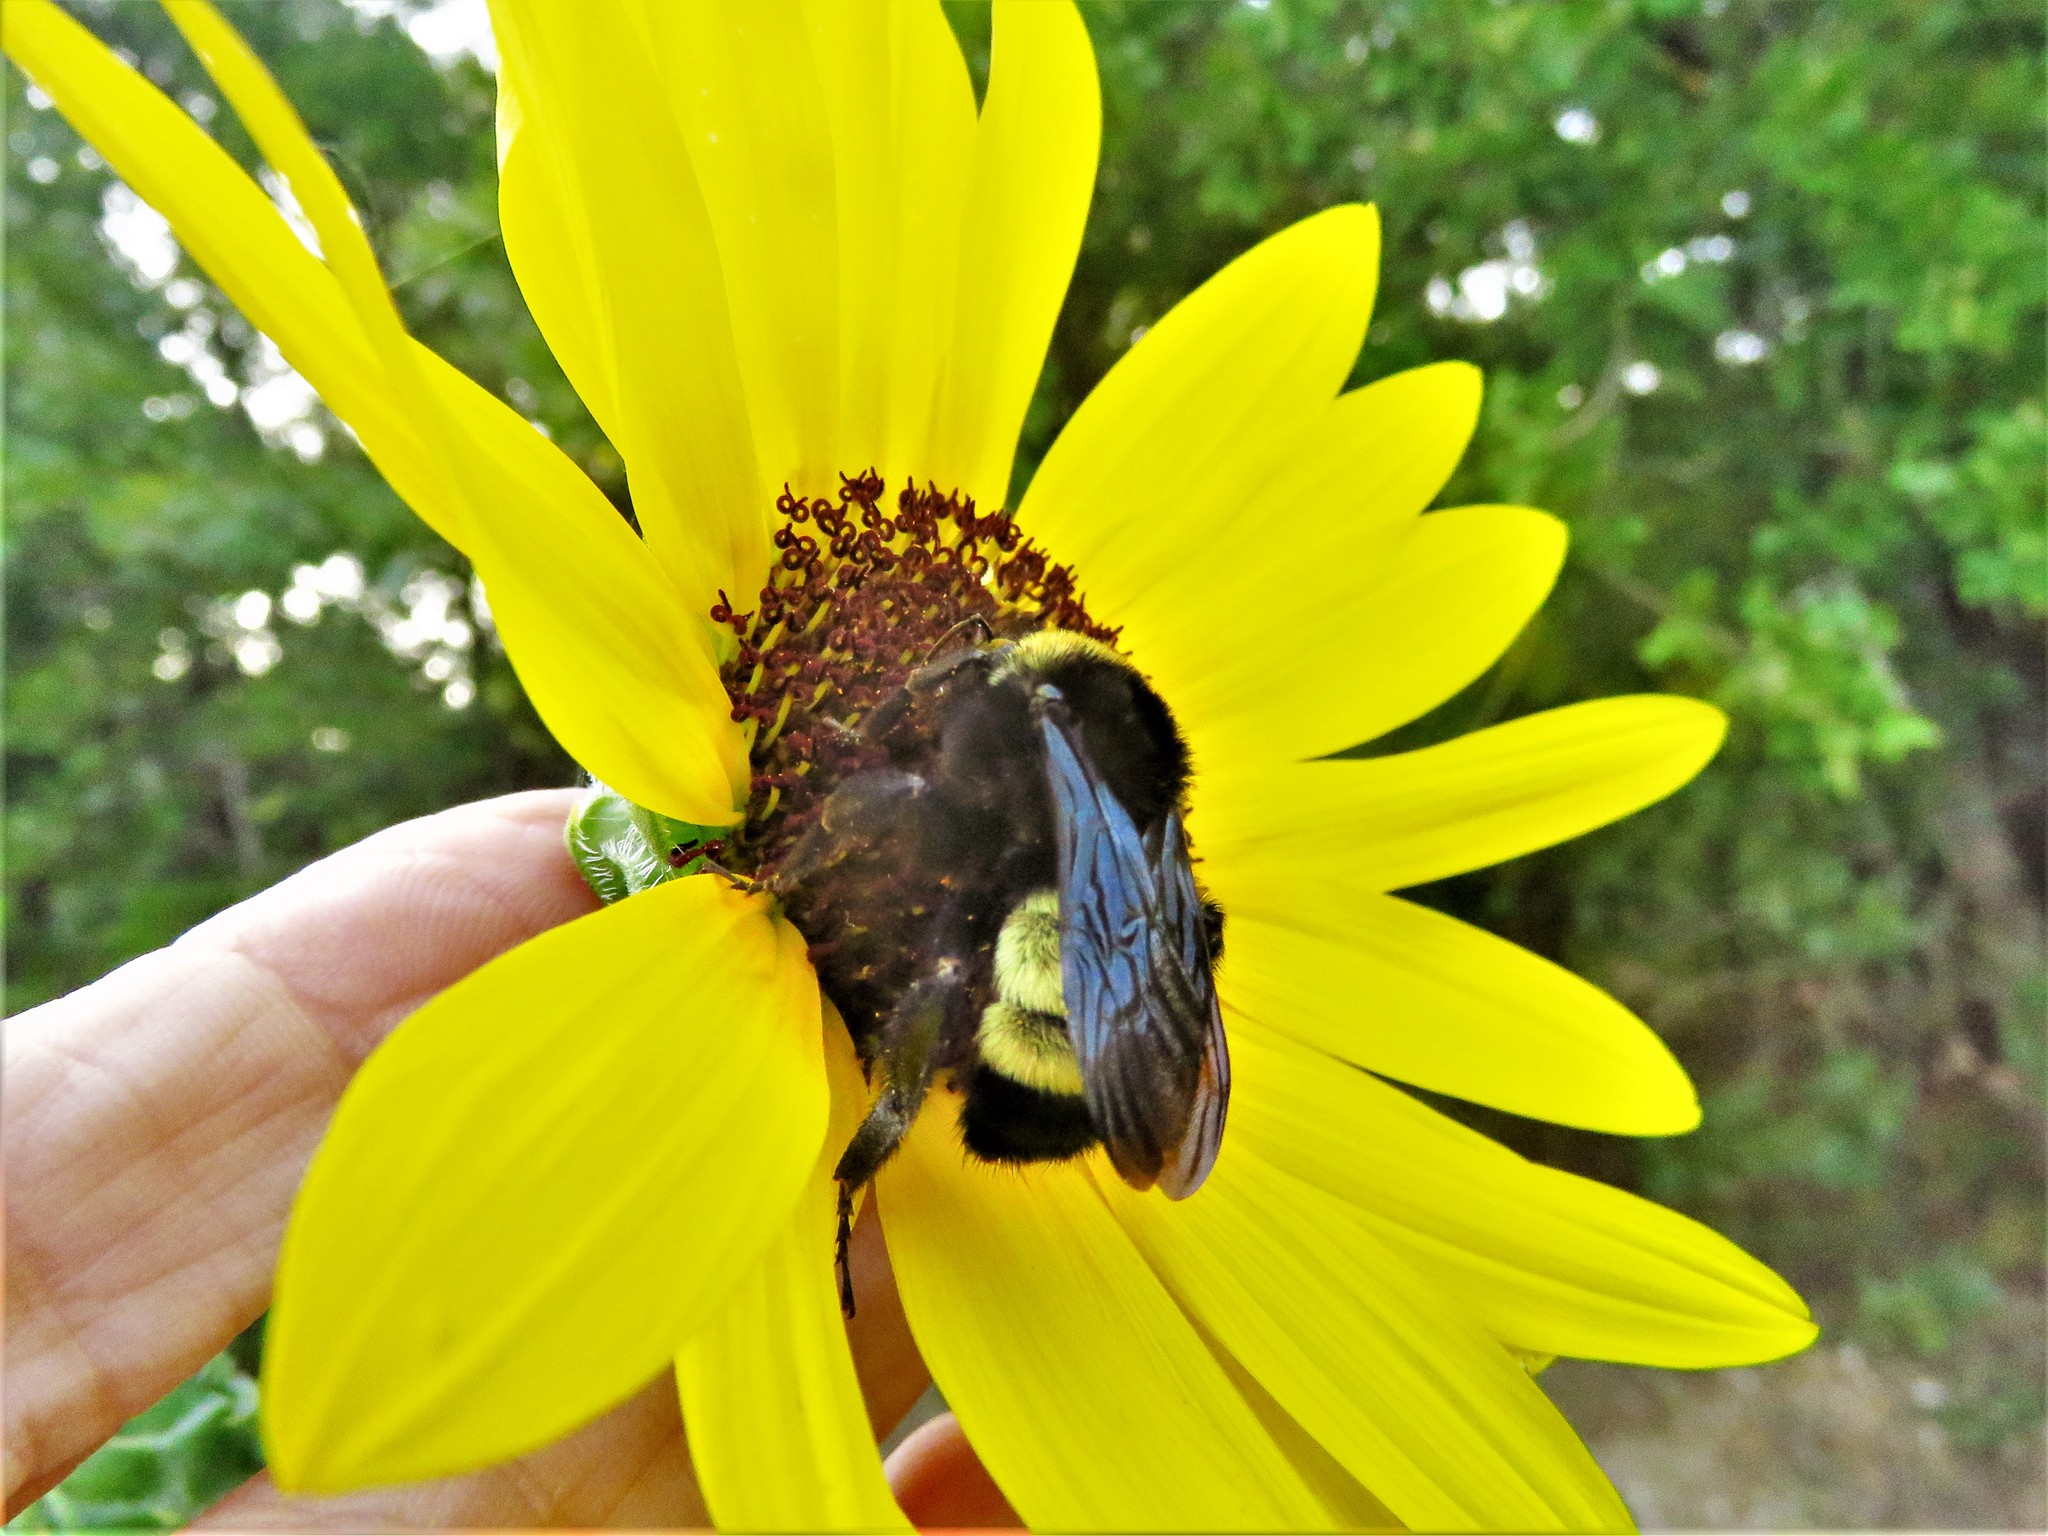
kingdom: Animalia
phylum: Arthropoda
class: Insecta
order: Hymenoptera
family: Apidae
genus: Bombus
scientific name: Bombus pensylvanicus
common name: Bumble bee
